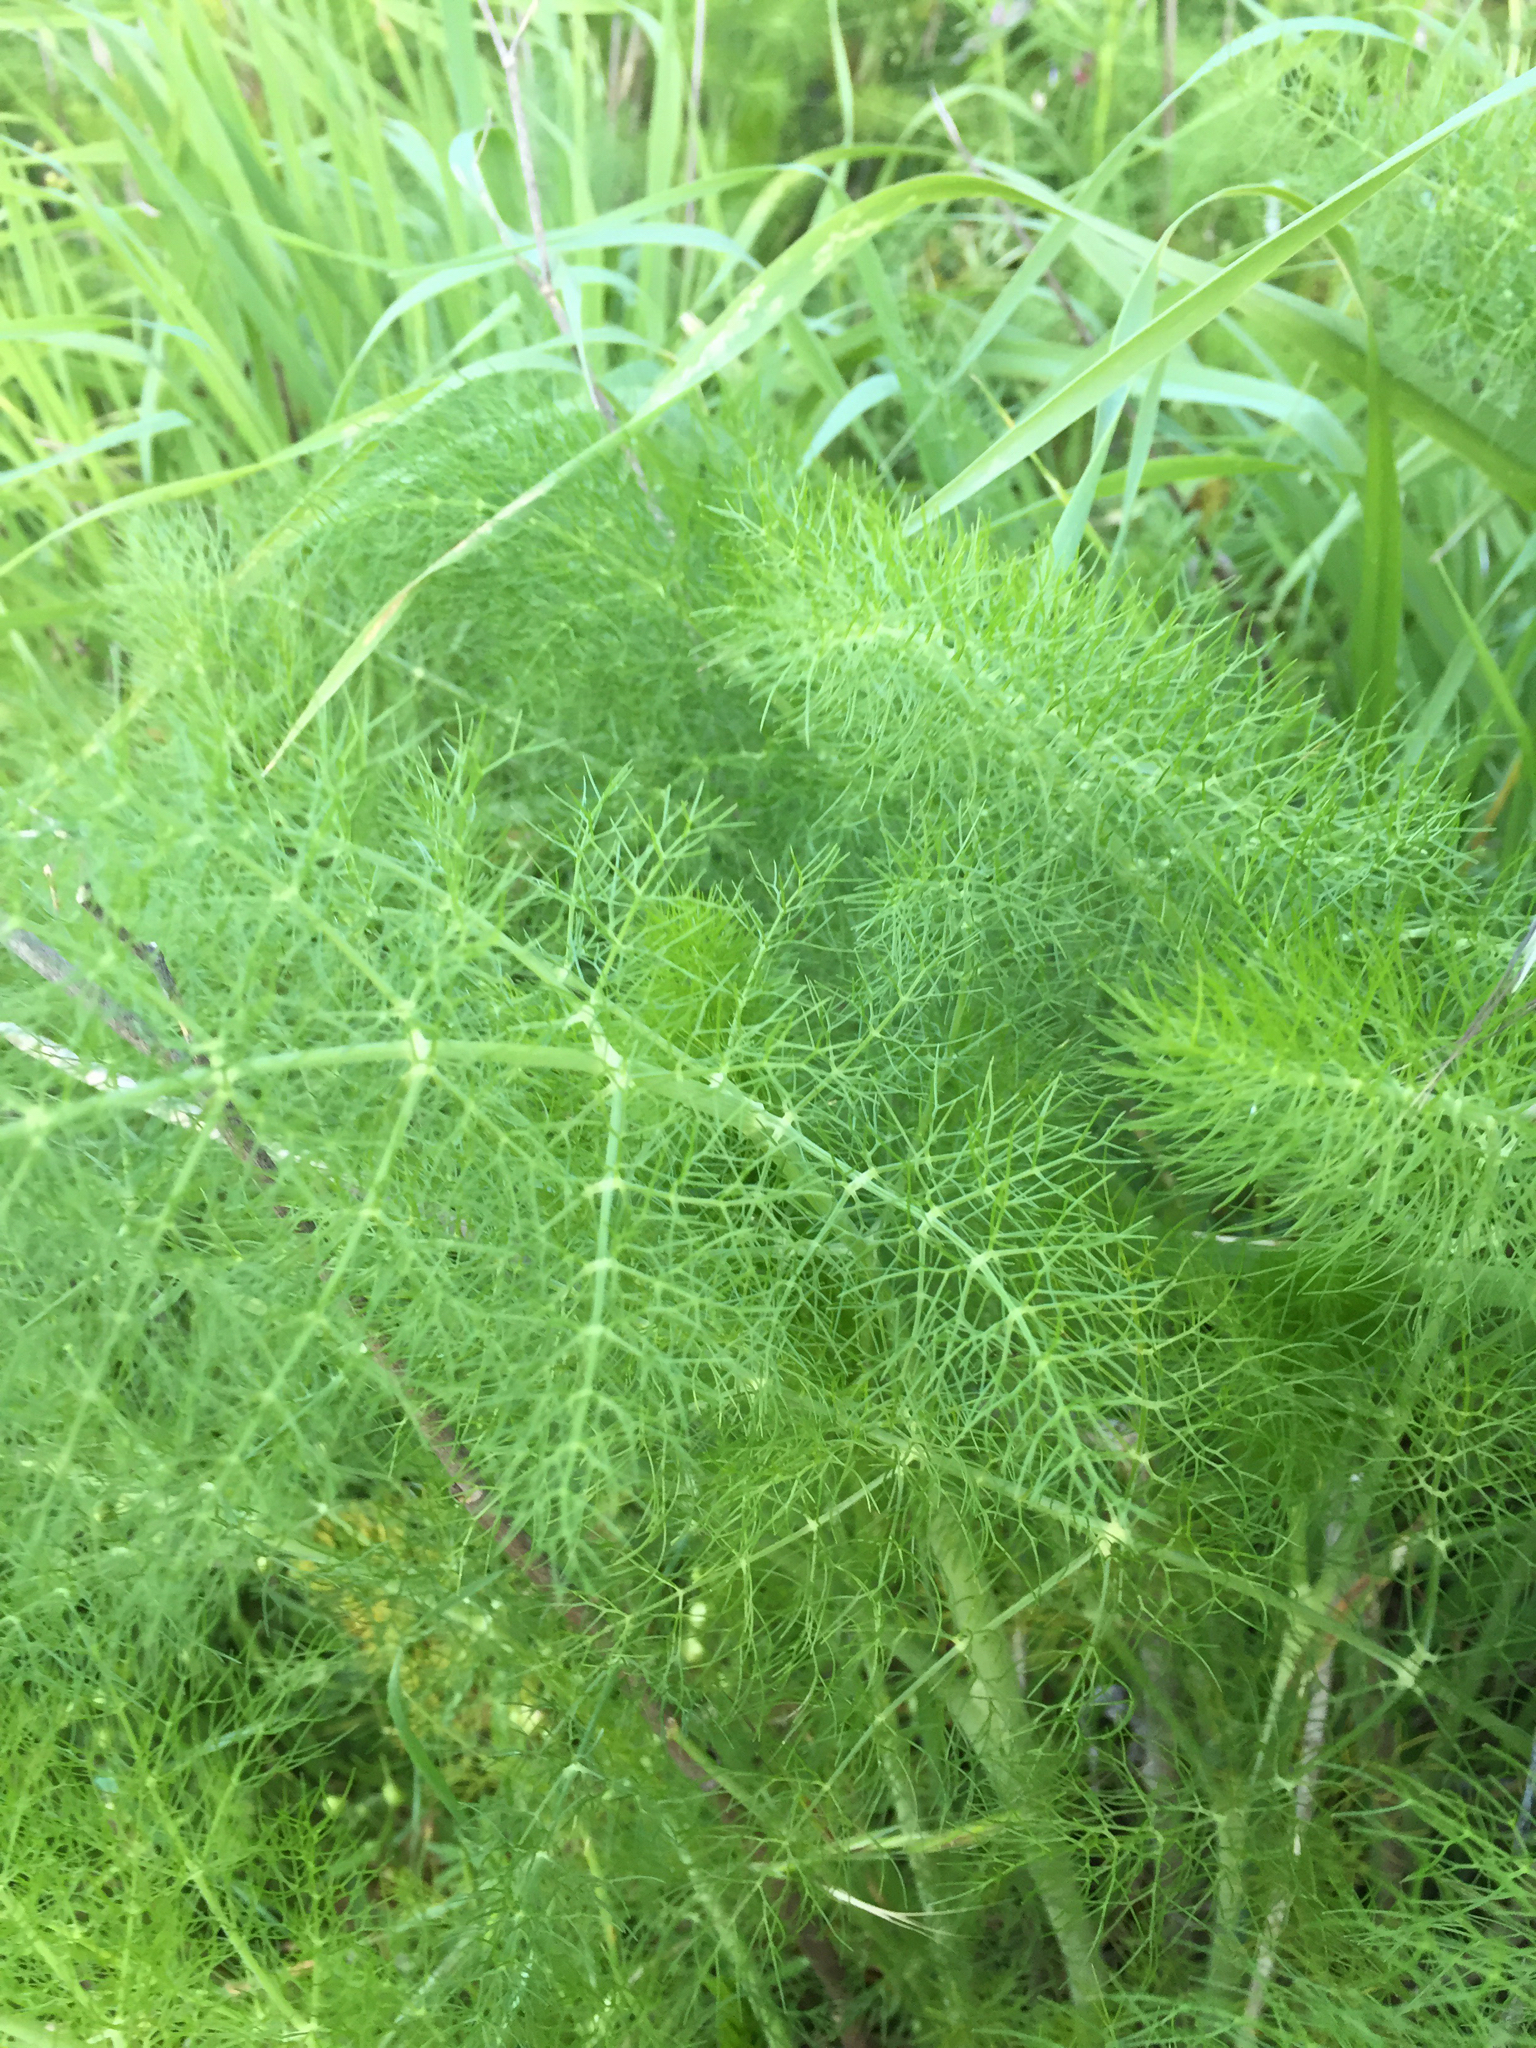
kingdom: Plantae
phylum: Tracheophyta
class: Magnoliopsida
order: Apiales
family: Apiaceae
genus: Foeniculum
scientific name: Foeniculum vulgare
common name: Fennel
